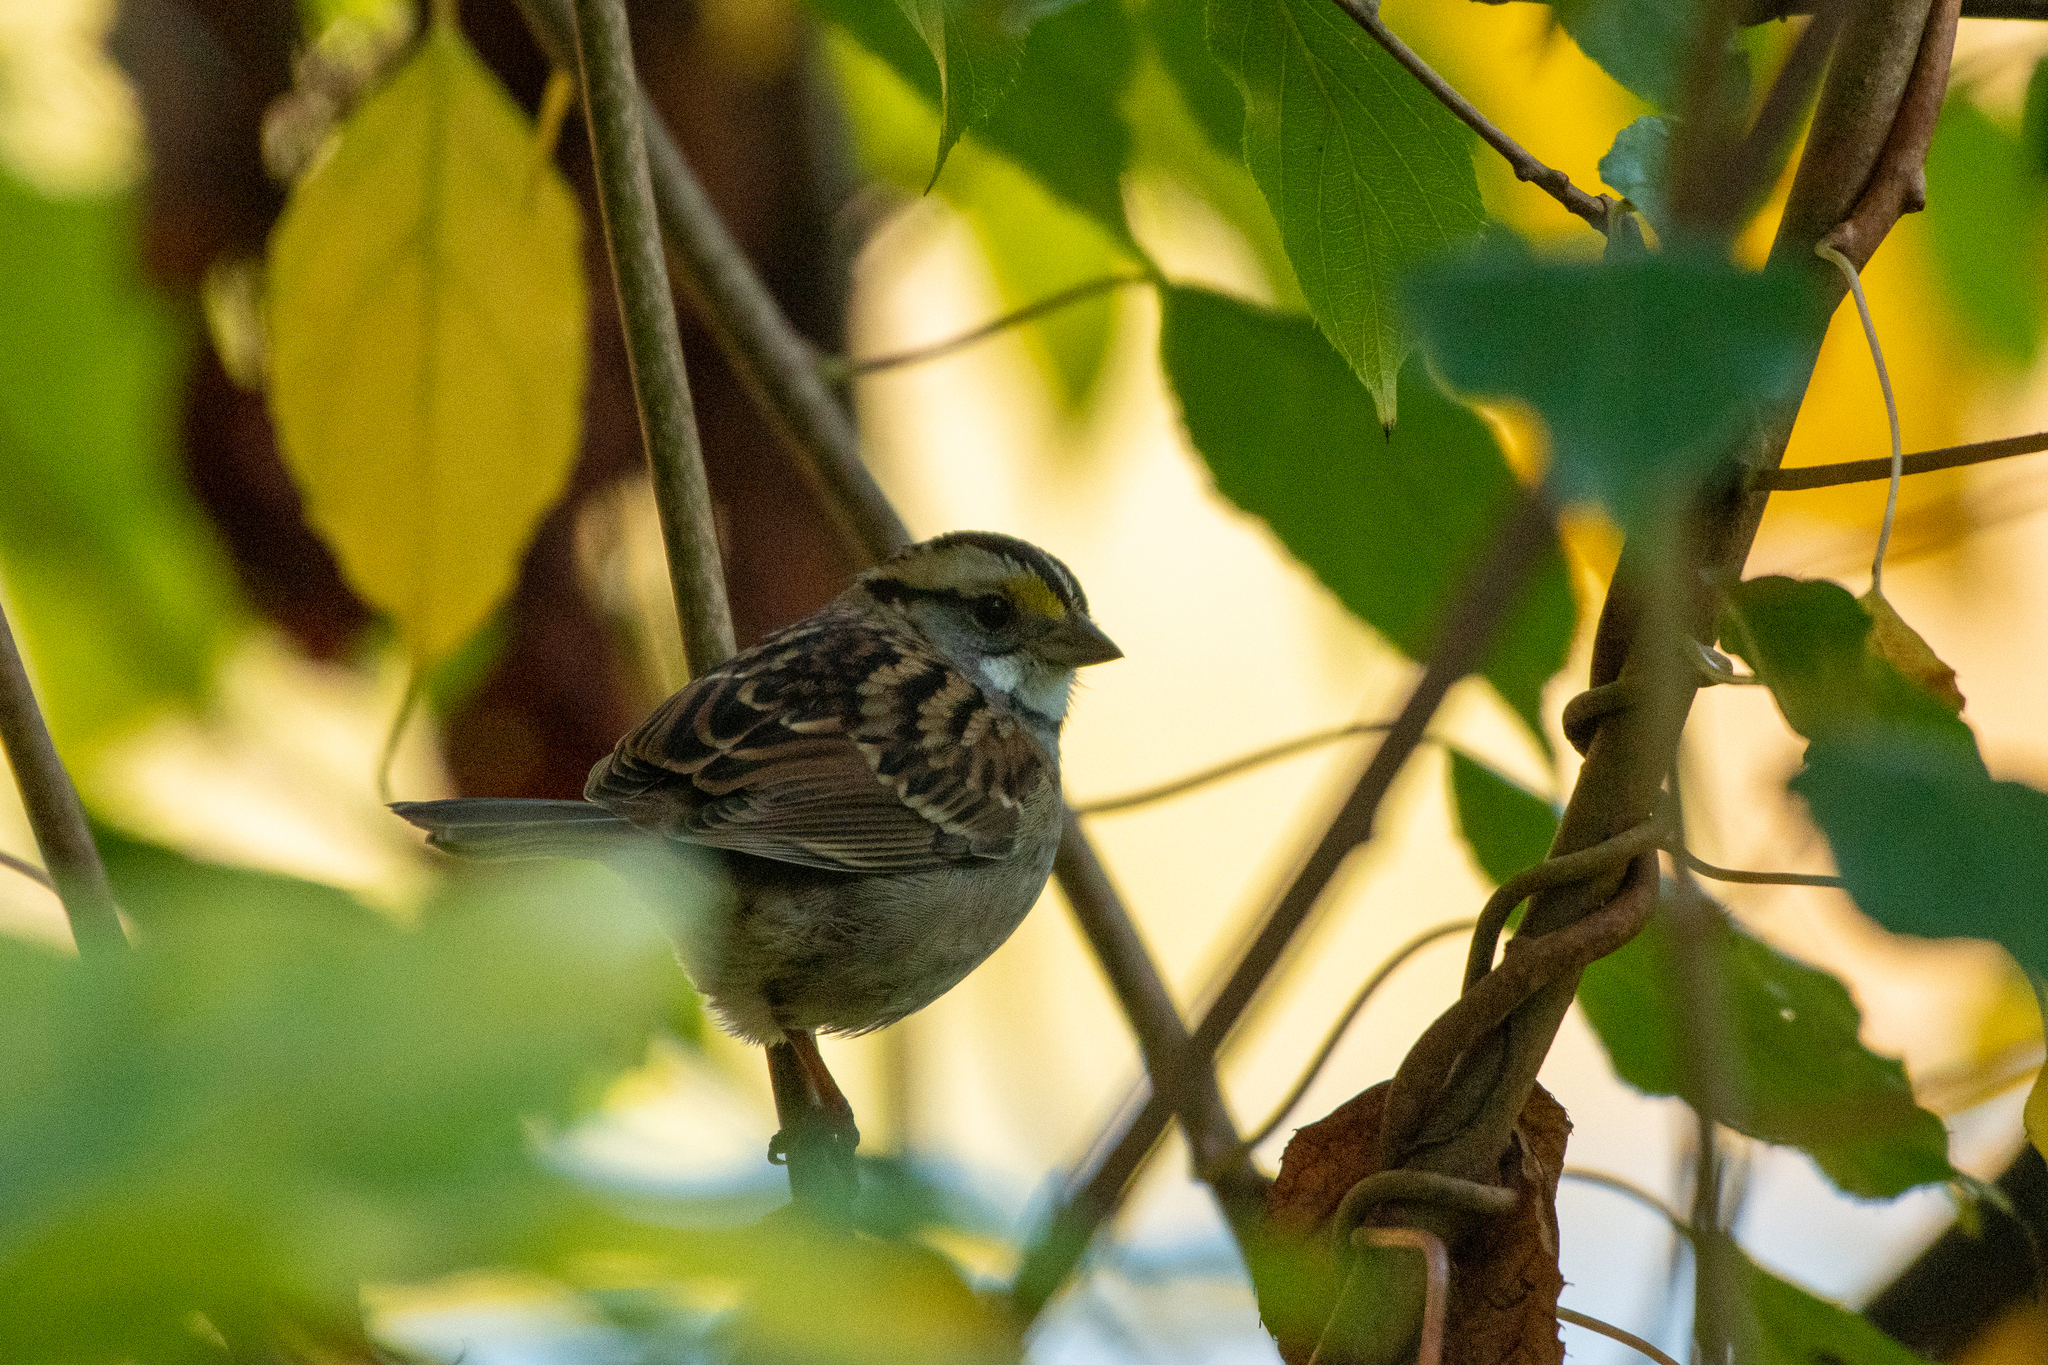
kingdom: Animalia
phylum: Chordata
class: Aves
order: Passeriformes
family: Passerellidae
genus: Zonotrichia
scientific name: Zonotrichia albicollis
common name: White-throated sparrow
